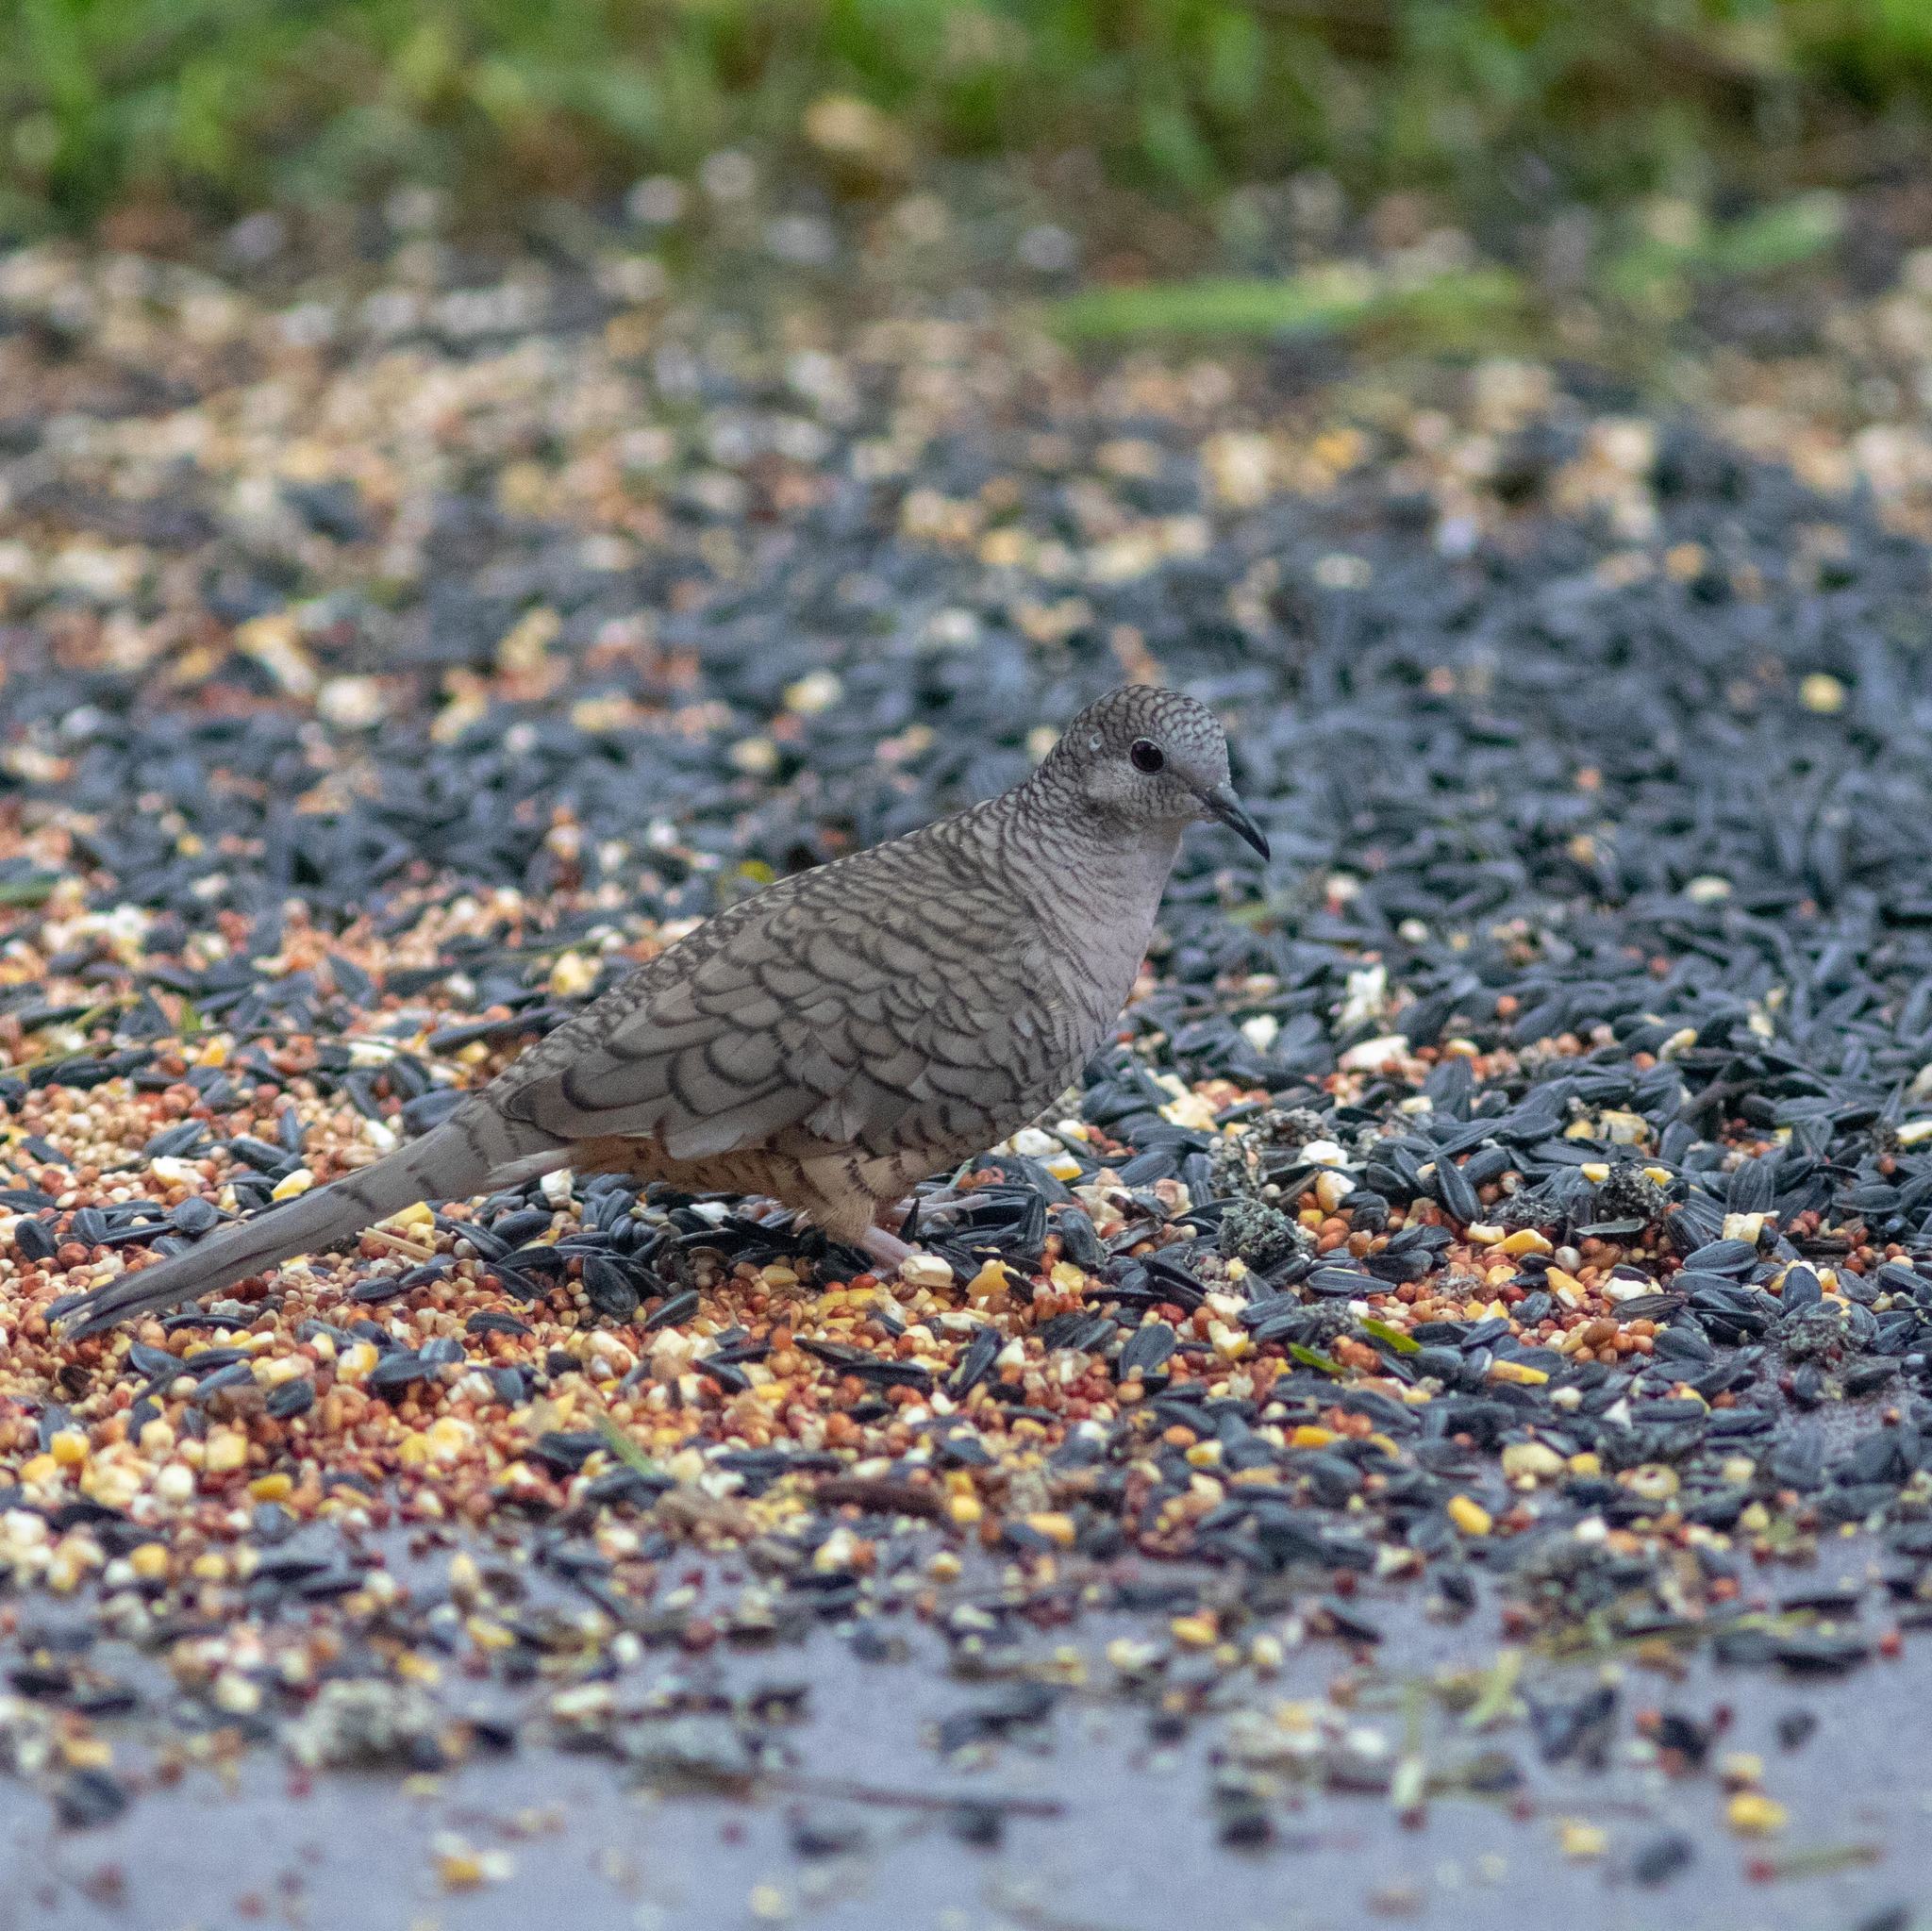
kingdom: Animalia
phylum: Chordata
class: Aves
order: Columbiformes
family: Columbidae
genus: Columbina
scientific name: Columbina inca
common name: Inca dove
